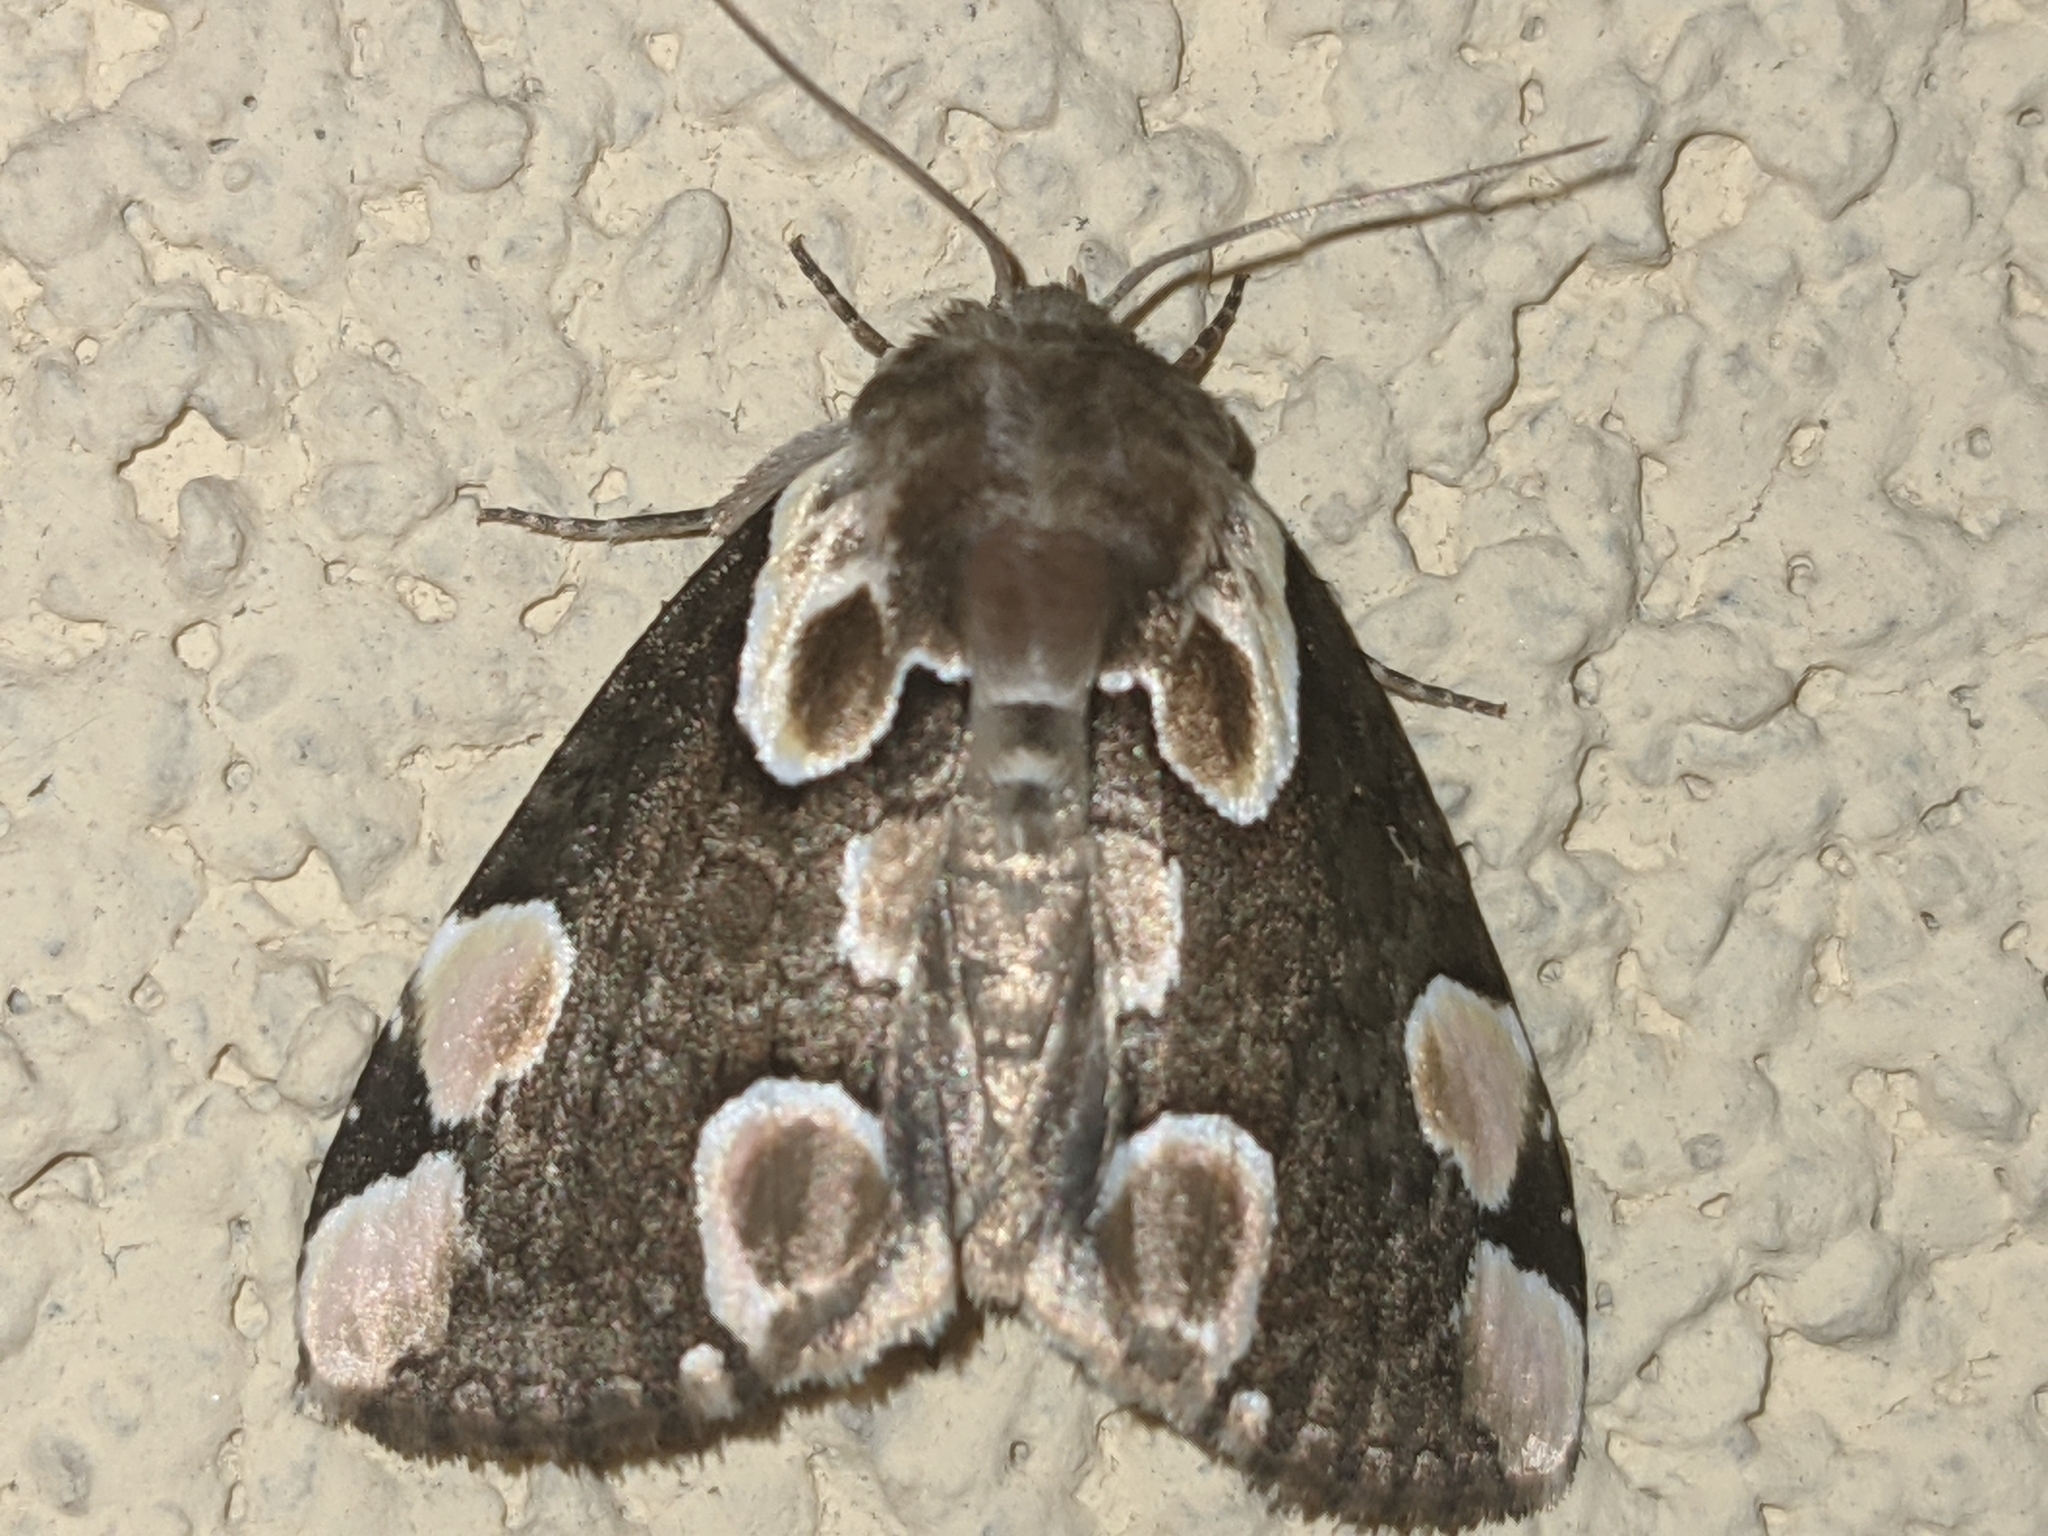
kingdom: Animalia
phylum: Arthropoda
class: Insecta
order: Lepidoptera
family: Drepanidae
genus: Thyatira
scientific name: Thyatira batis
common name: Peach blossom
